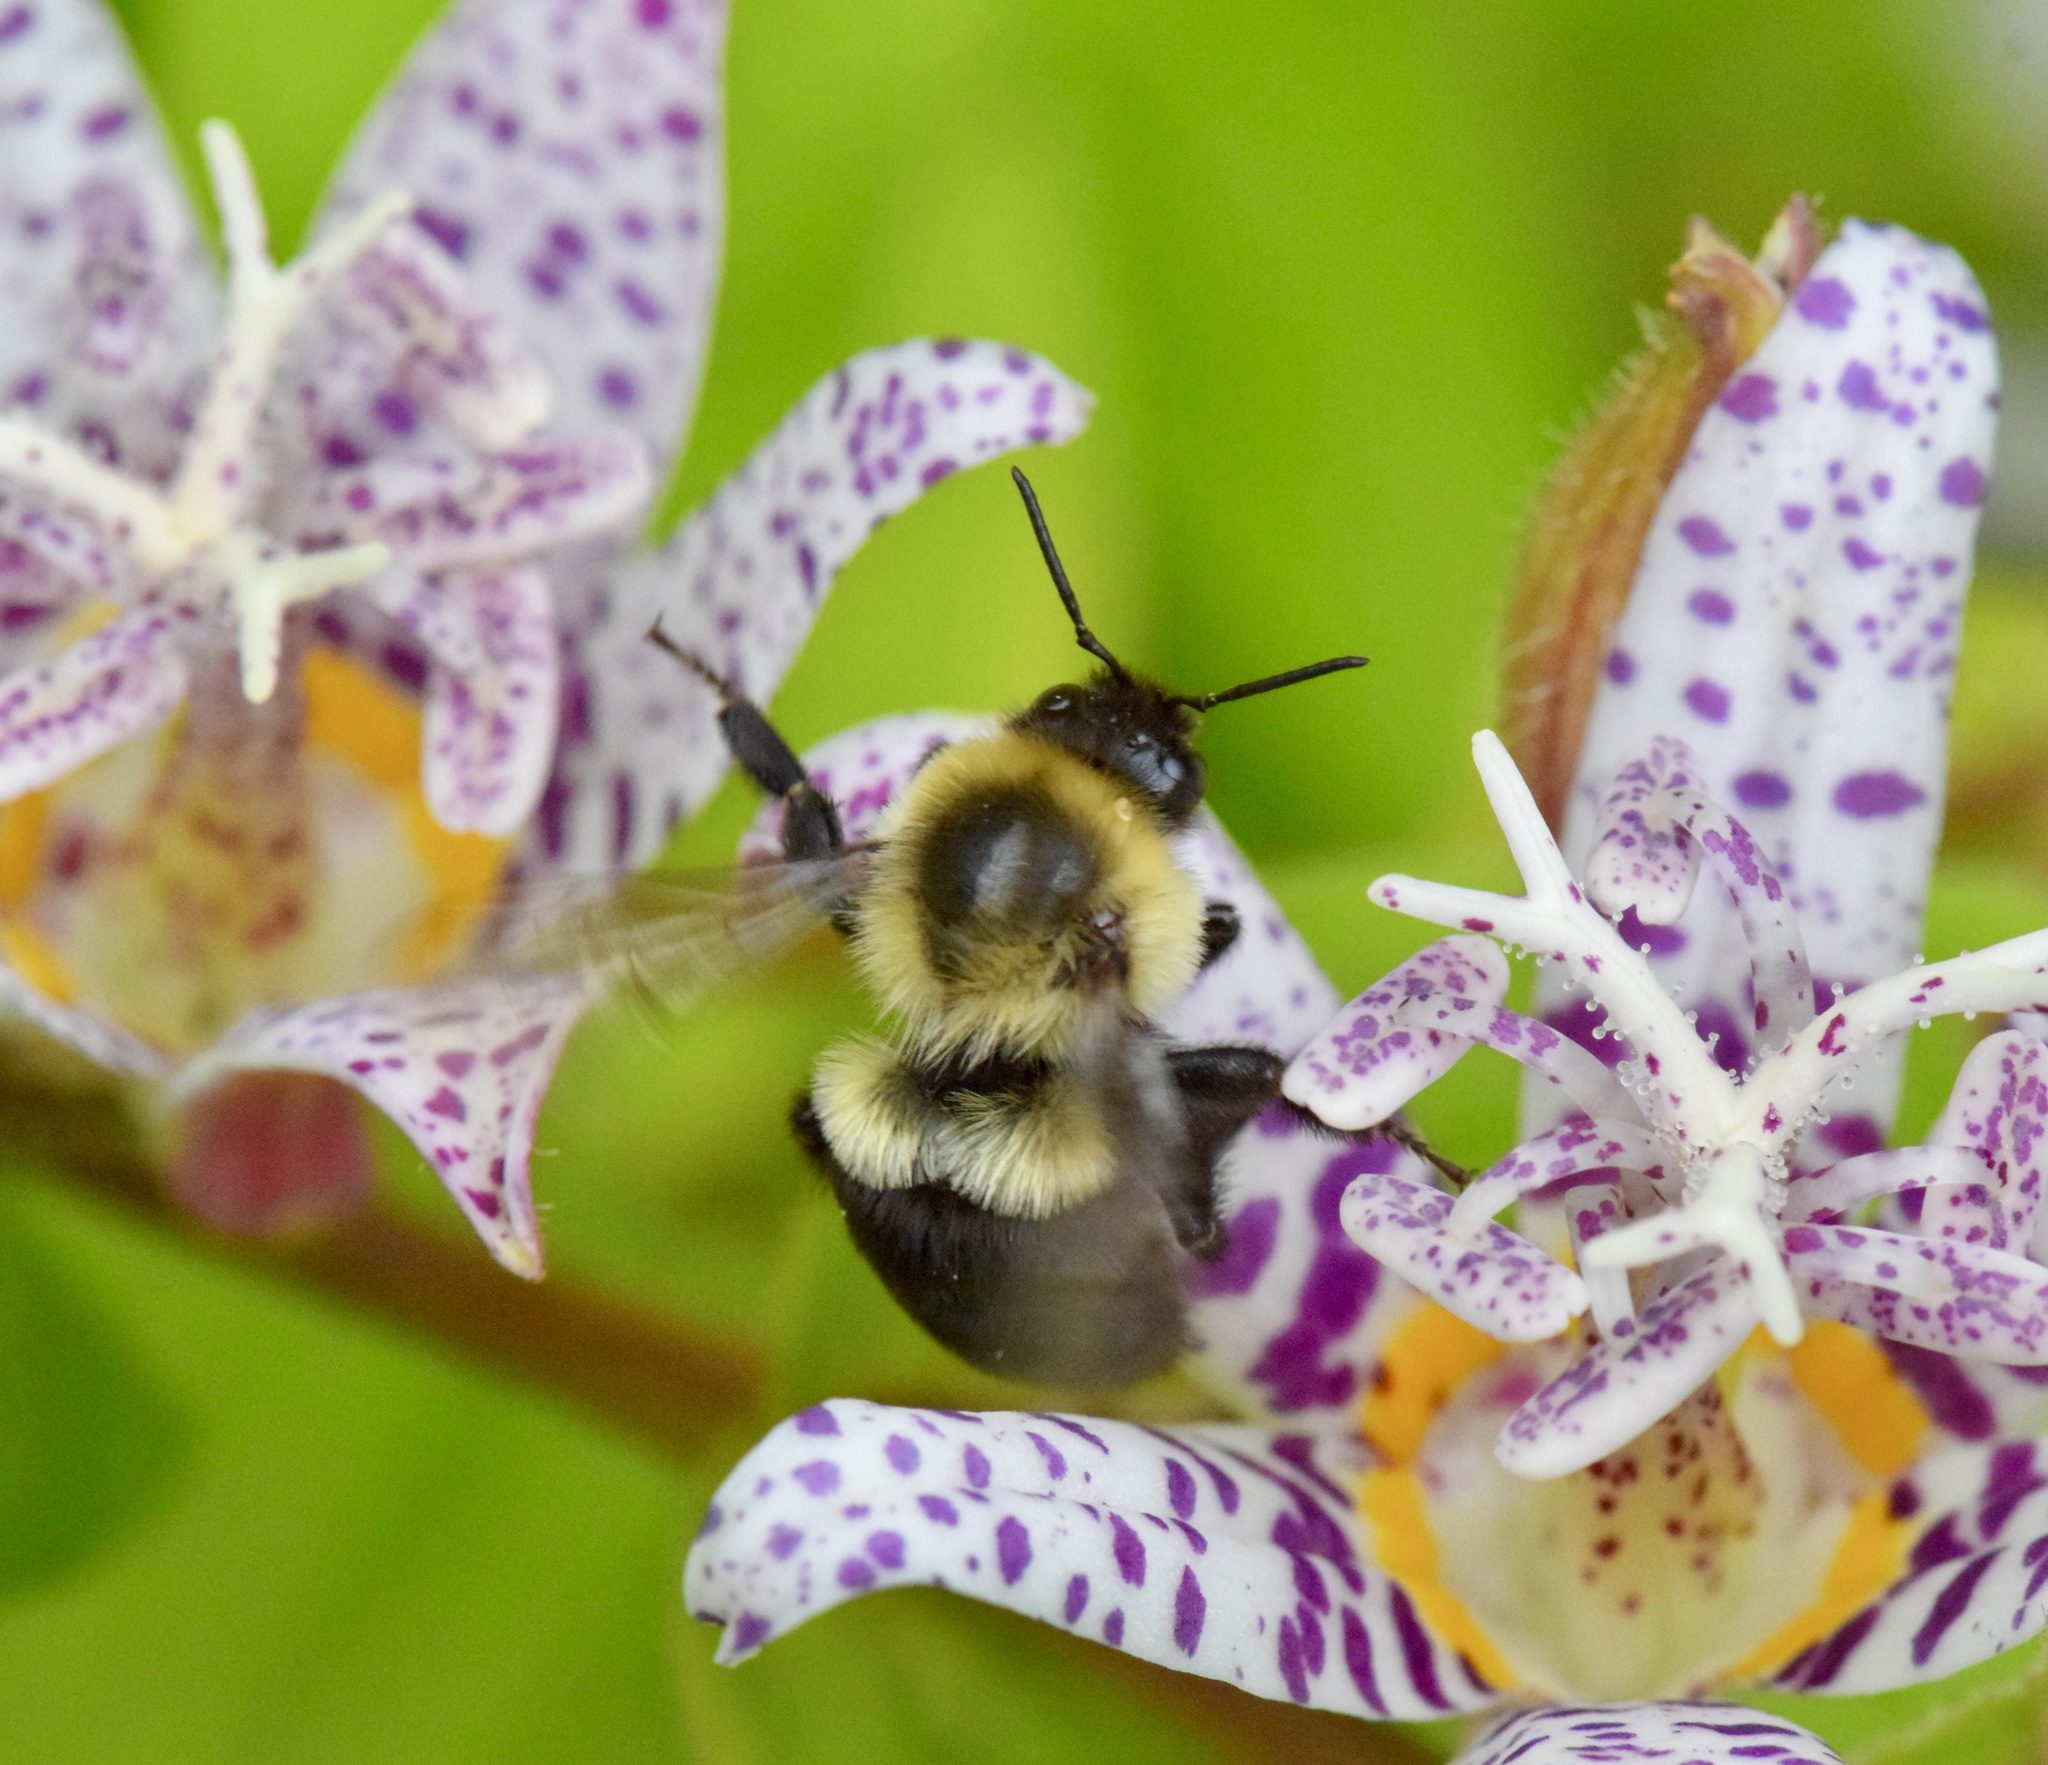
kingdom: Animalia
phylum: Arthropoda
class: Insecta
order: Hymenoptera
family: Apidae
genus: Bombus
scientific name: Bombus impatiens
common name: Common eastern bumble bee
